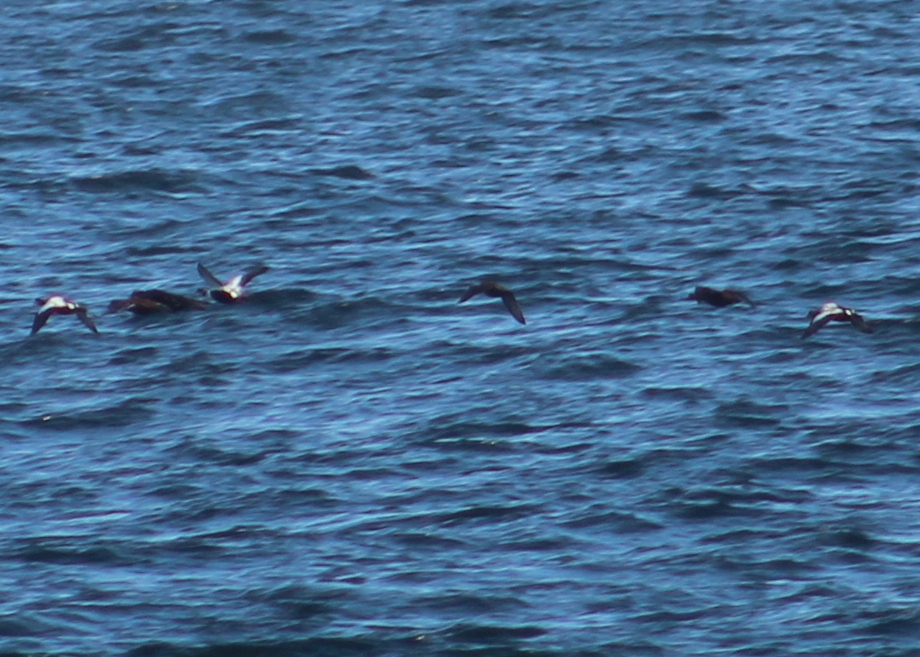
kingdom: Animalia
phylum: Chordata
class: Aves
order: Anseriformes
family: Anatidae
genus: Somateria
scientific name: Somateria mollissima
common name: Common eider
